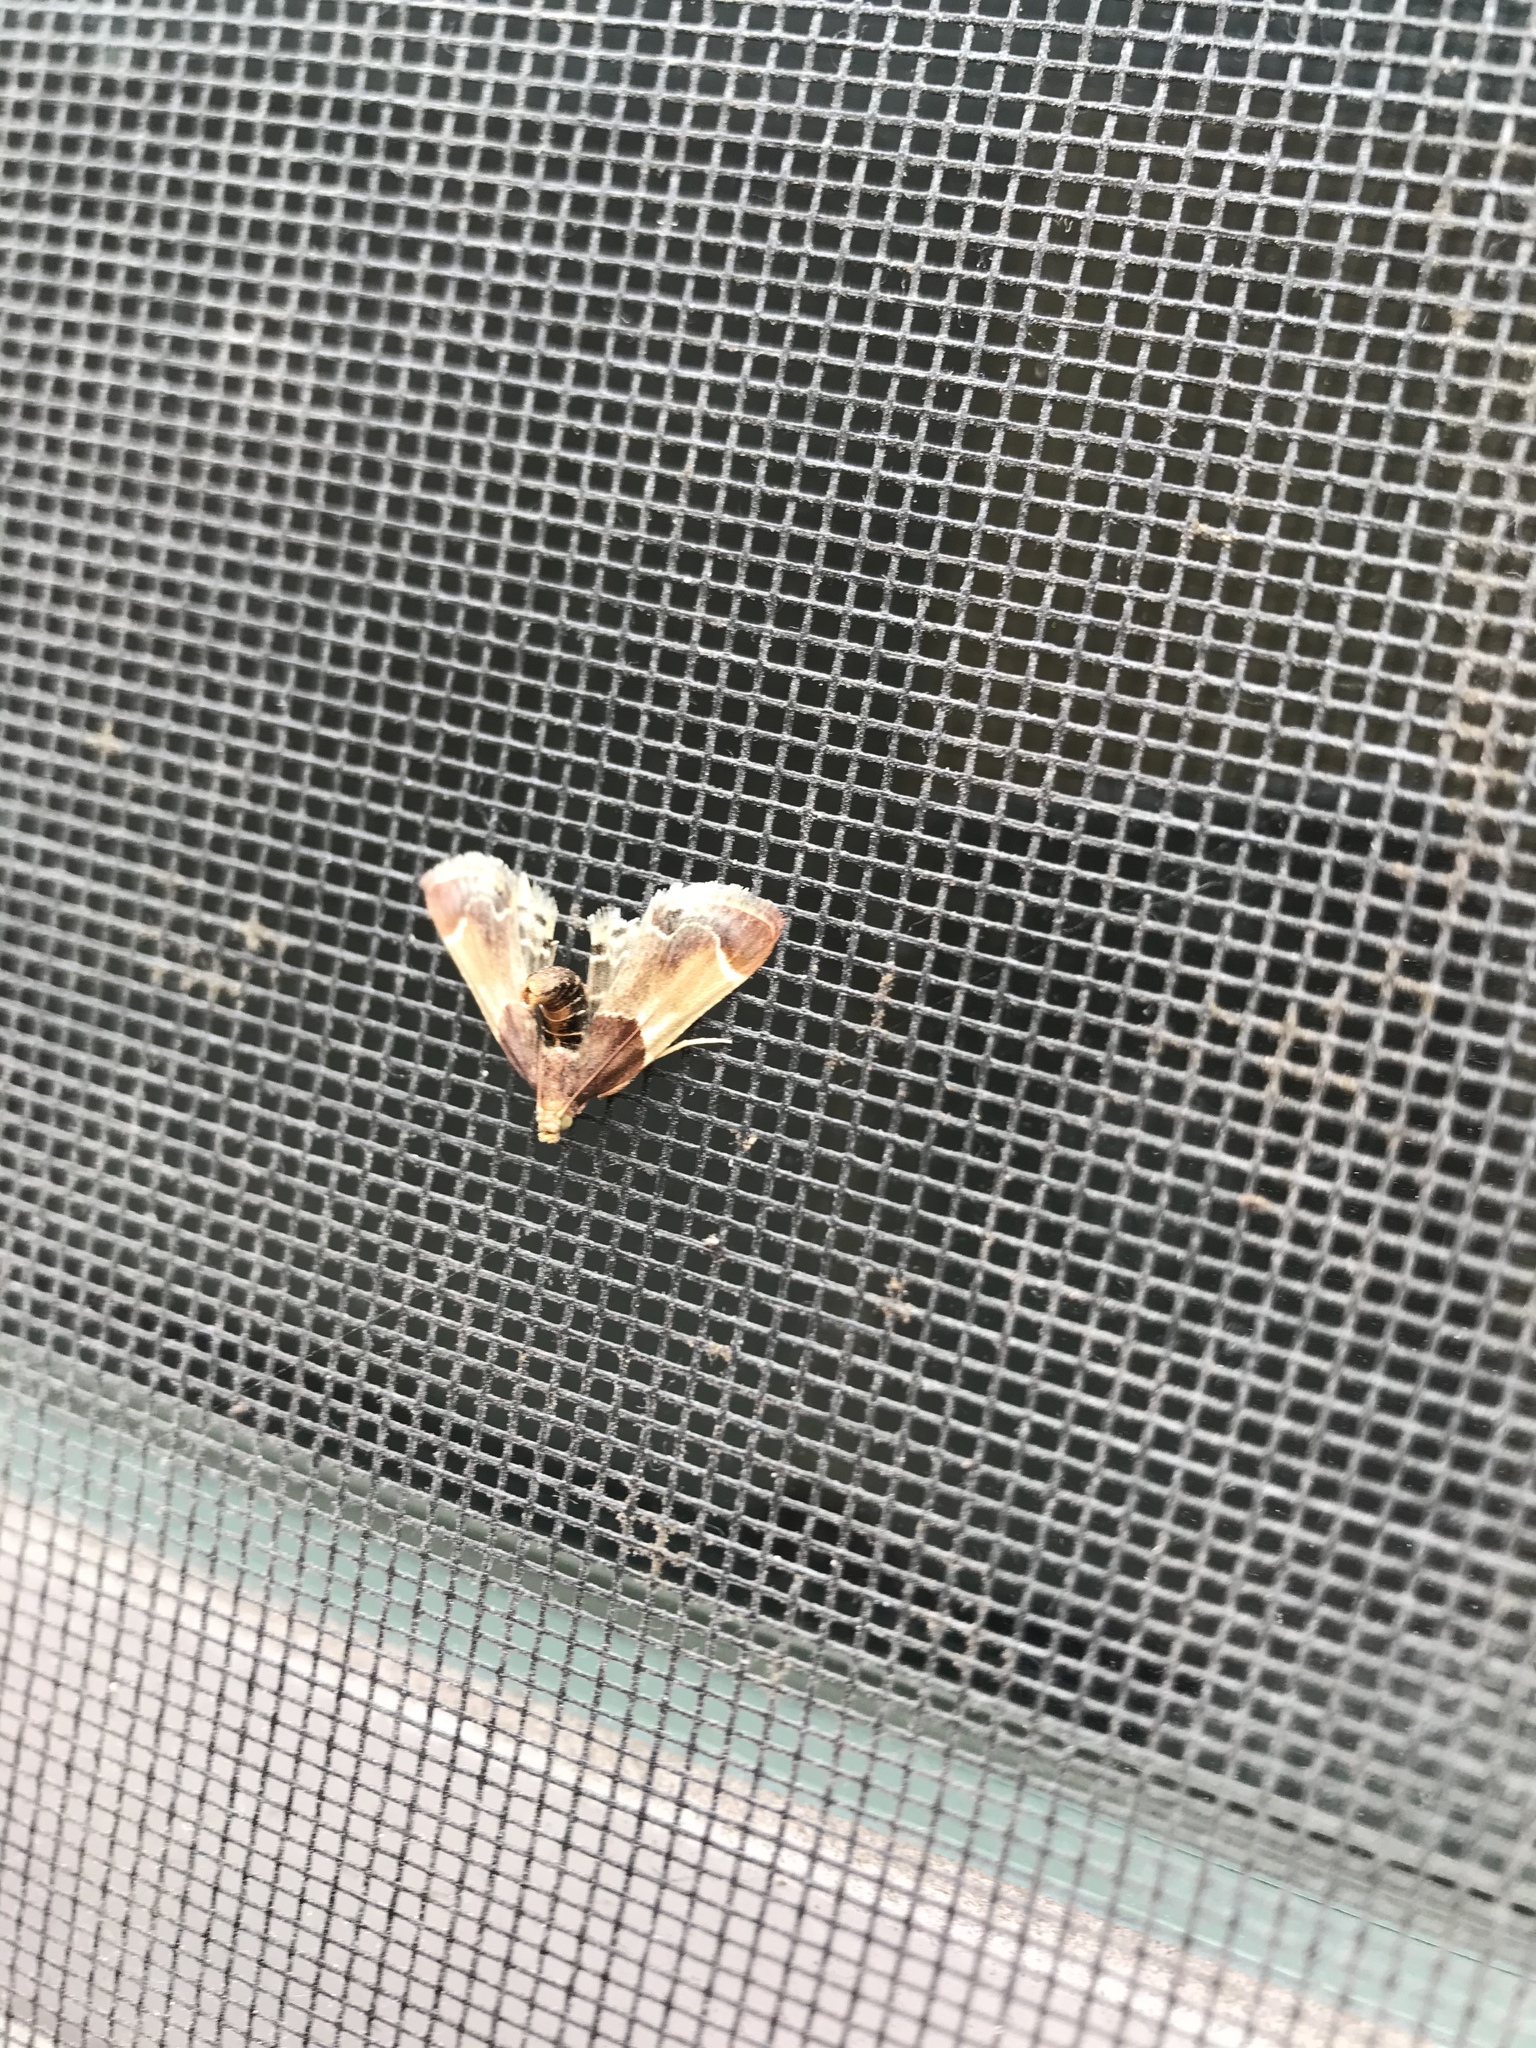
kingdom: Animalia
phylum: Arthropoda
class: Insecta
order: Lepidoptera
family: Pyralidae
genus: Pyralis
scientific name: Pyralis farinalis
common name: Meal moth
